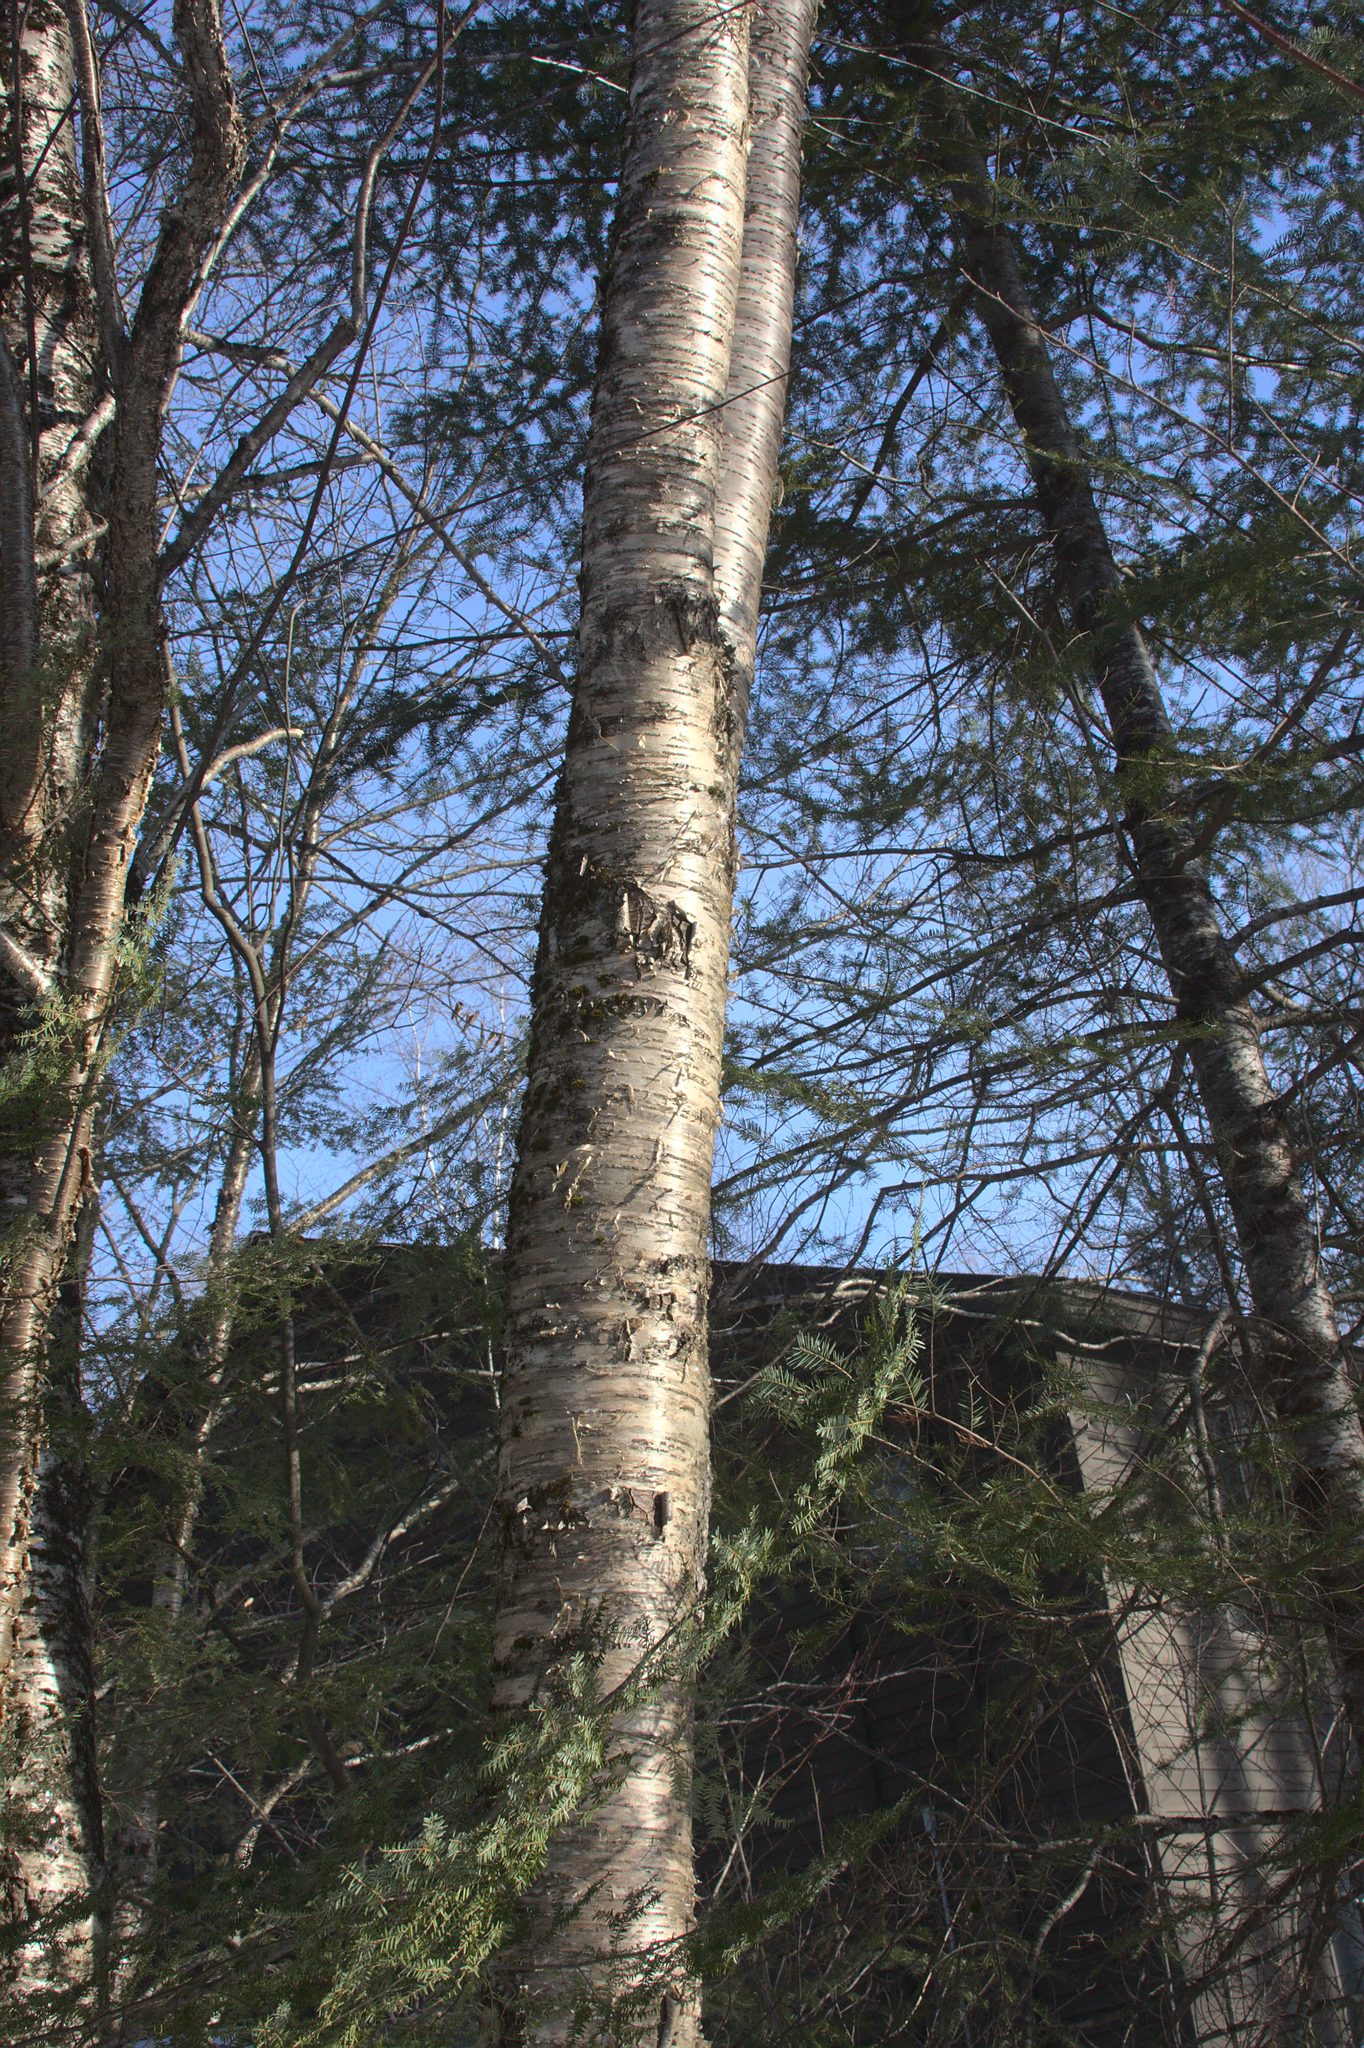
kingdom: Plantae
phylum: Tracheophyta
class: Magnoliopsida
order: Fagales
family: Betulaceae
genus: Betula
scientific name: Betula alleghaniensis
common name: Yellow birch
